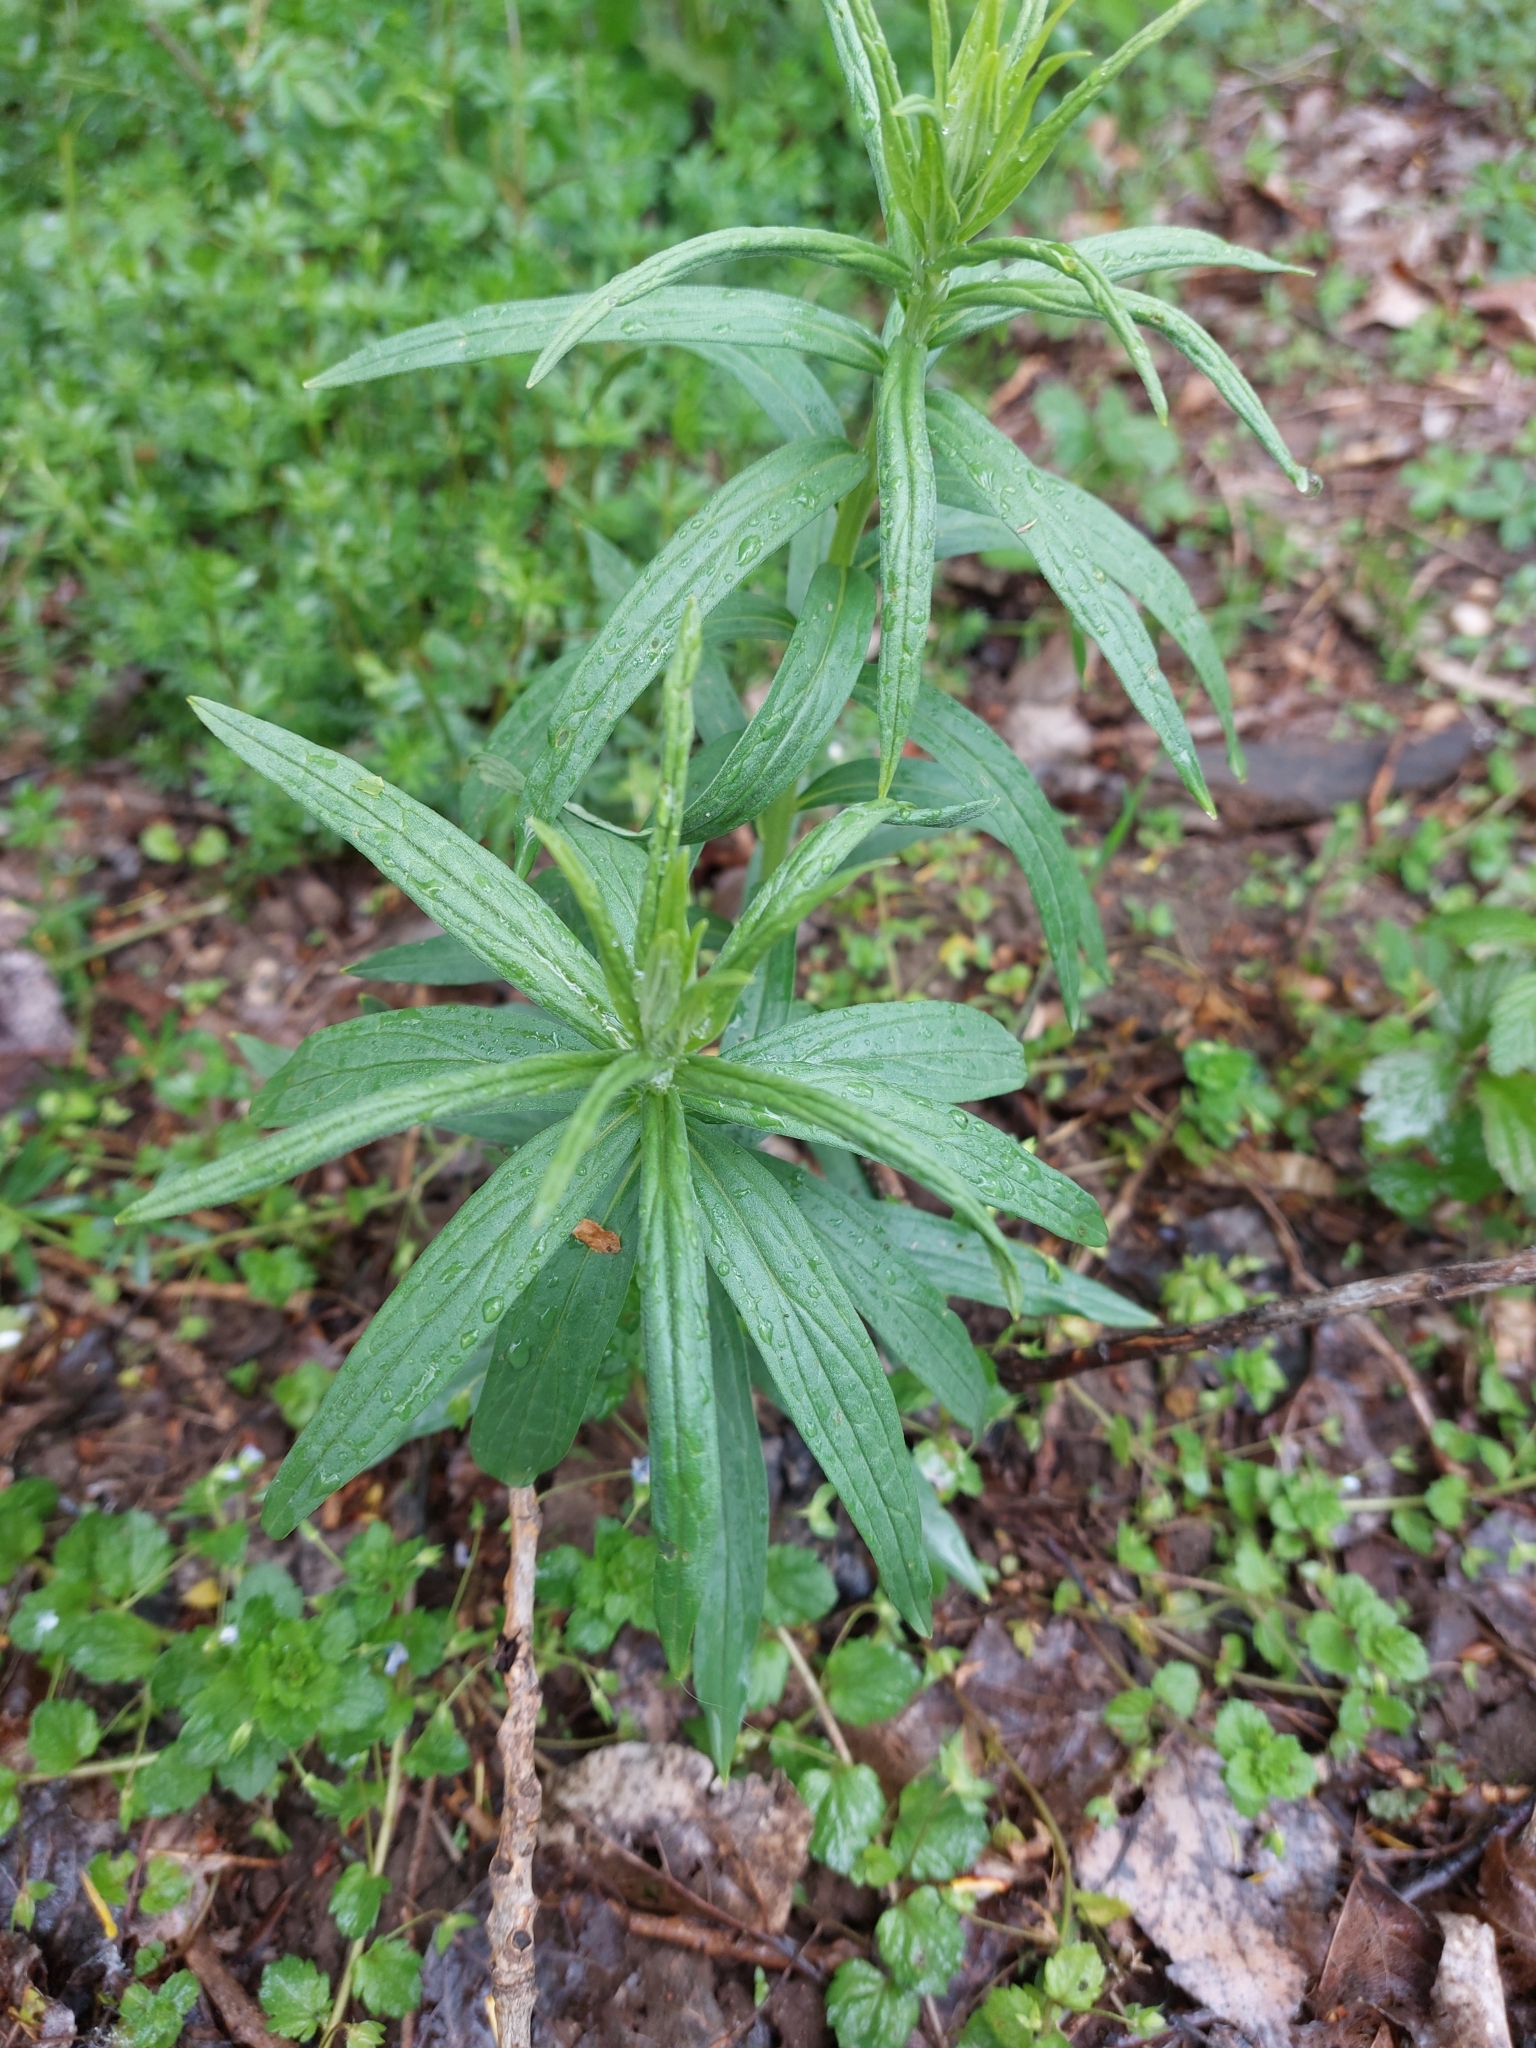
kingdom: Plantae
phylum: Tracheophyta
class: Magnoliopsida
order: Asterales
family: Asteraceae
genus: Erigeron
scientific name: Erigeron canadensis
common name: Canadian fleabane
